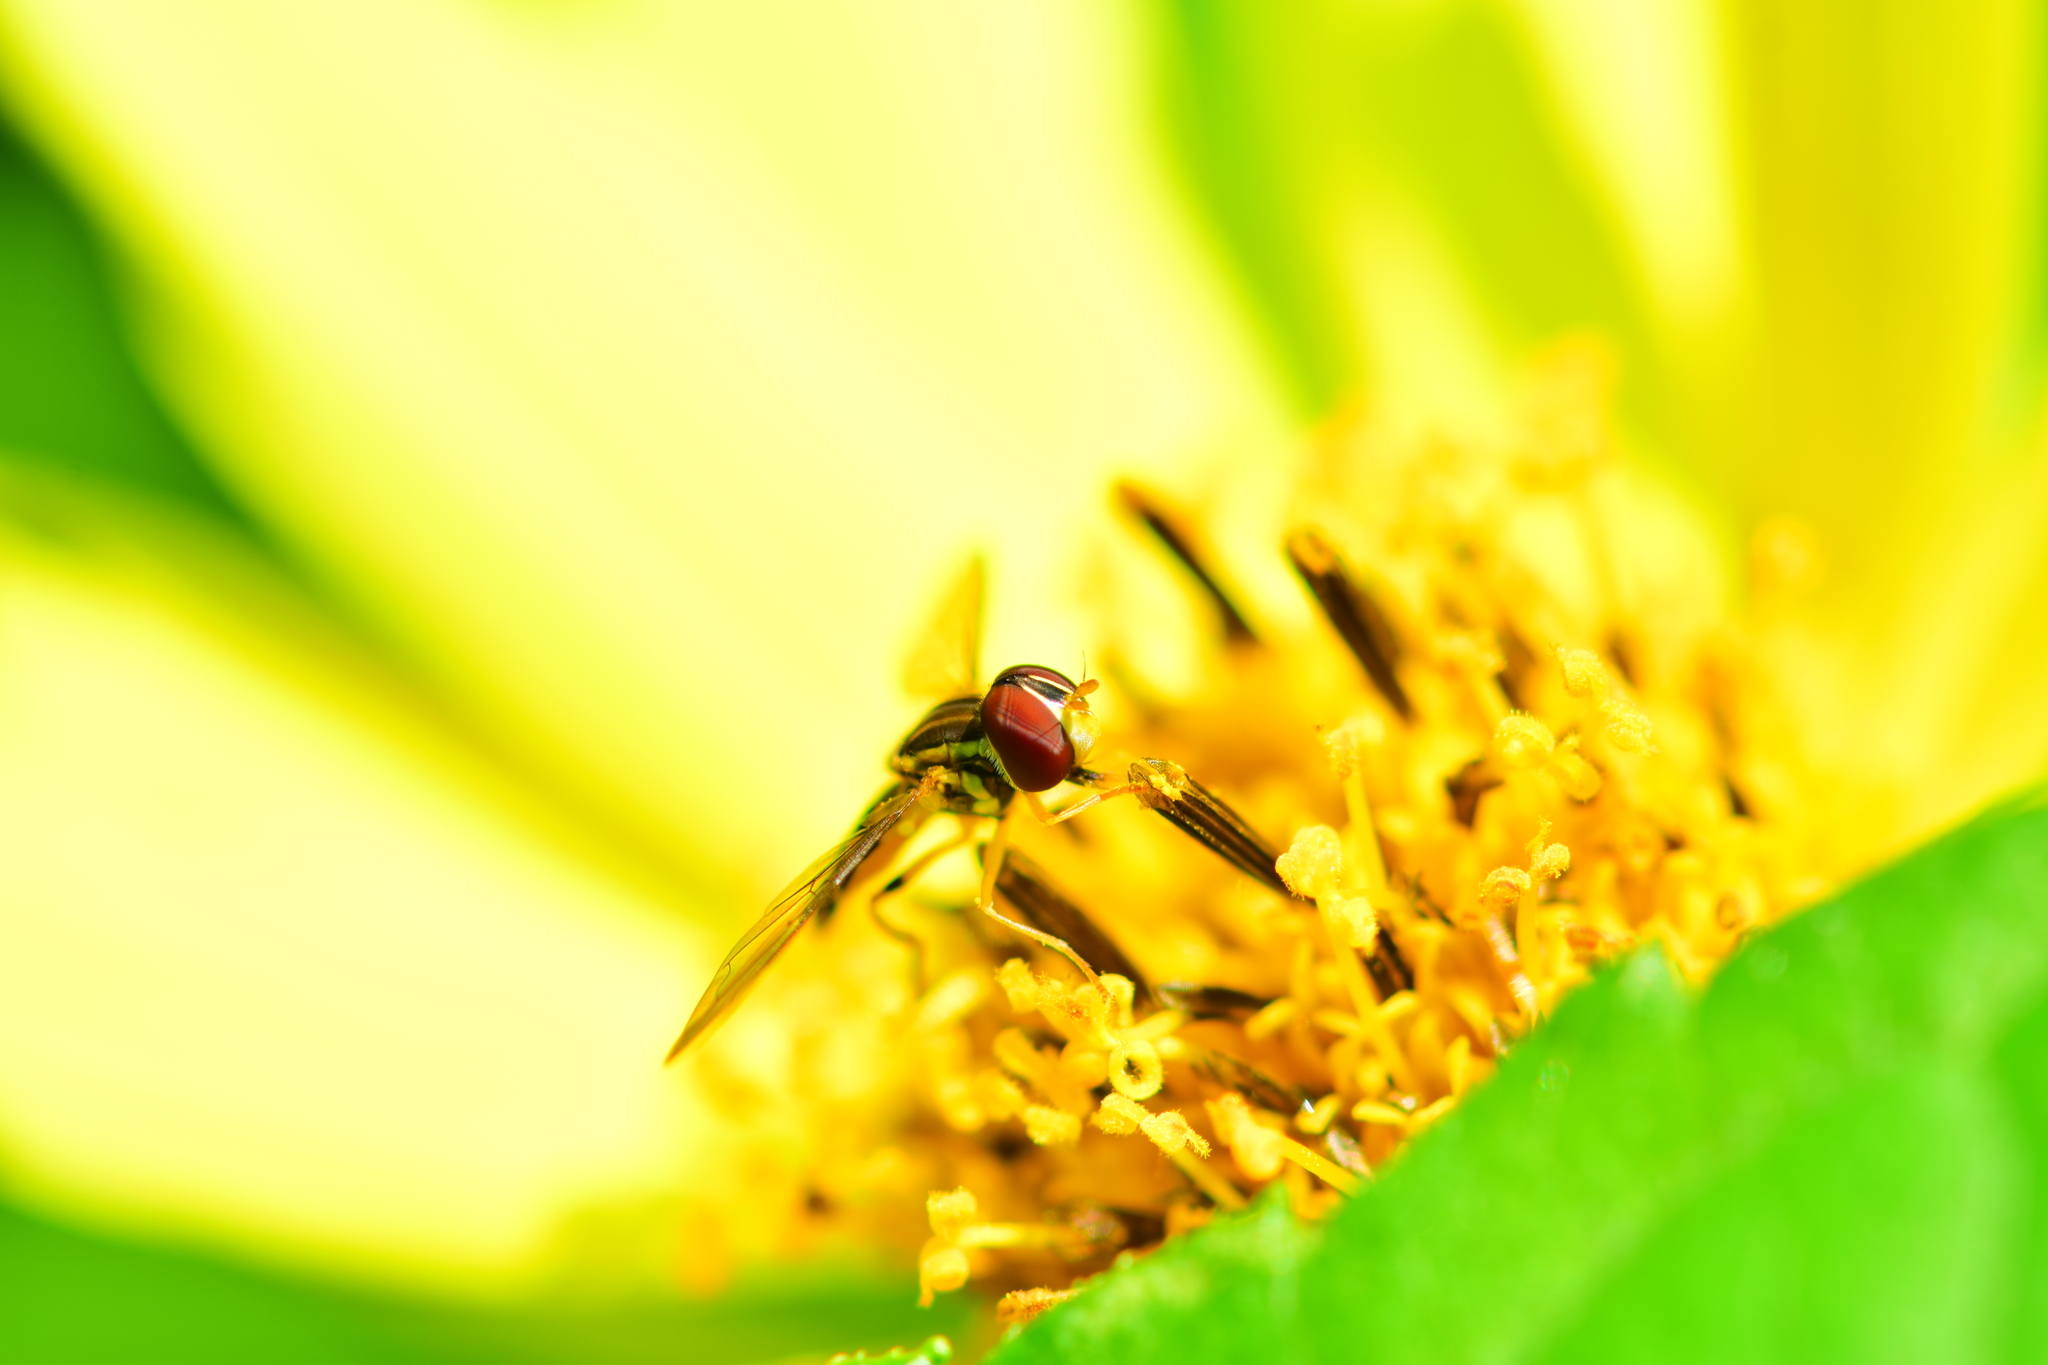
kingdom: Animalia
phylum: Arthropoda
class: Insecta
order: Diptera
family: Syrphidae
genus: Toxomerus
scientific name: Toxomerus geminatus
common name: Eastern calligrapher
